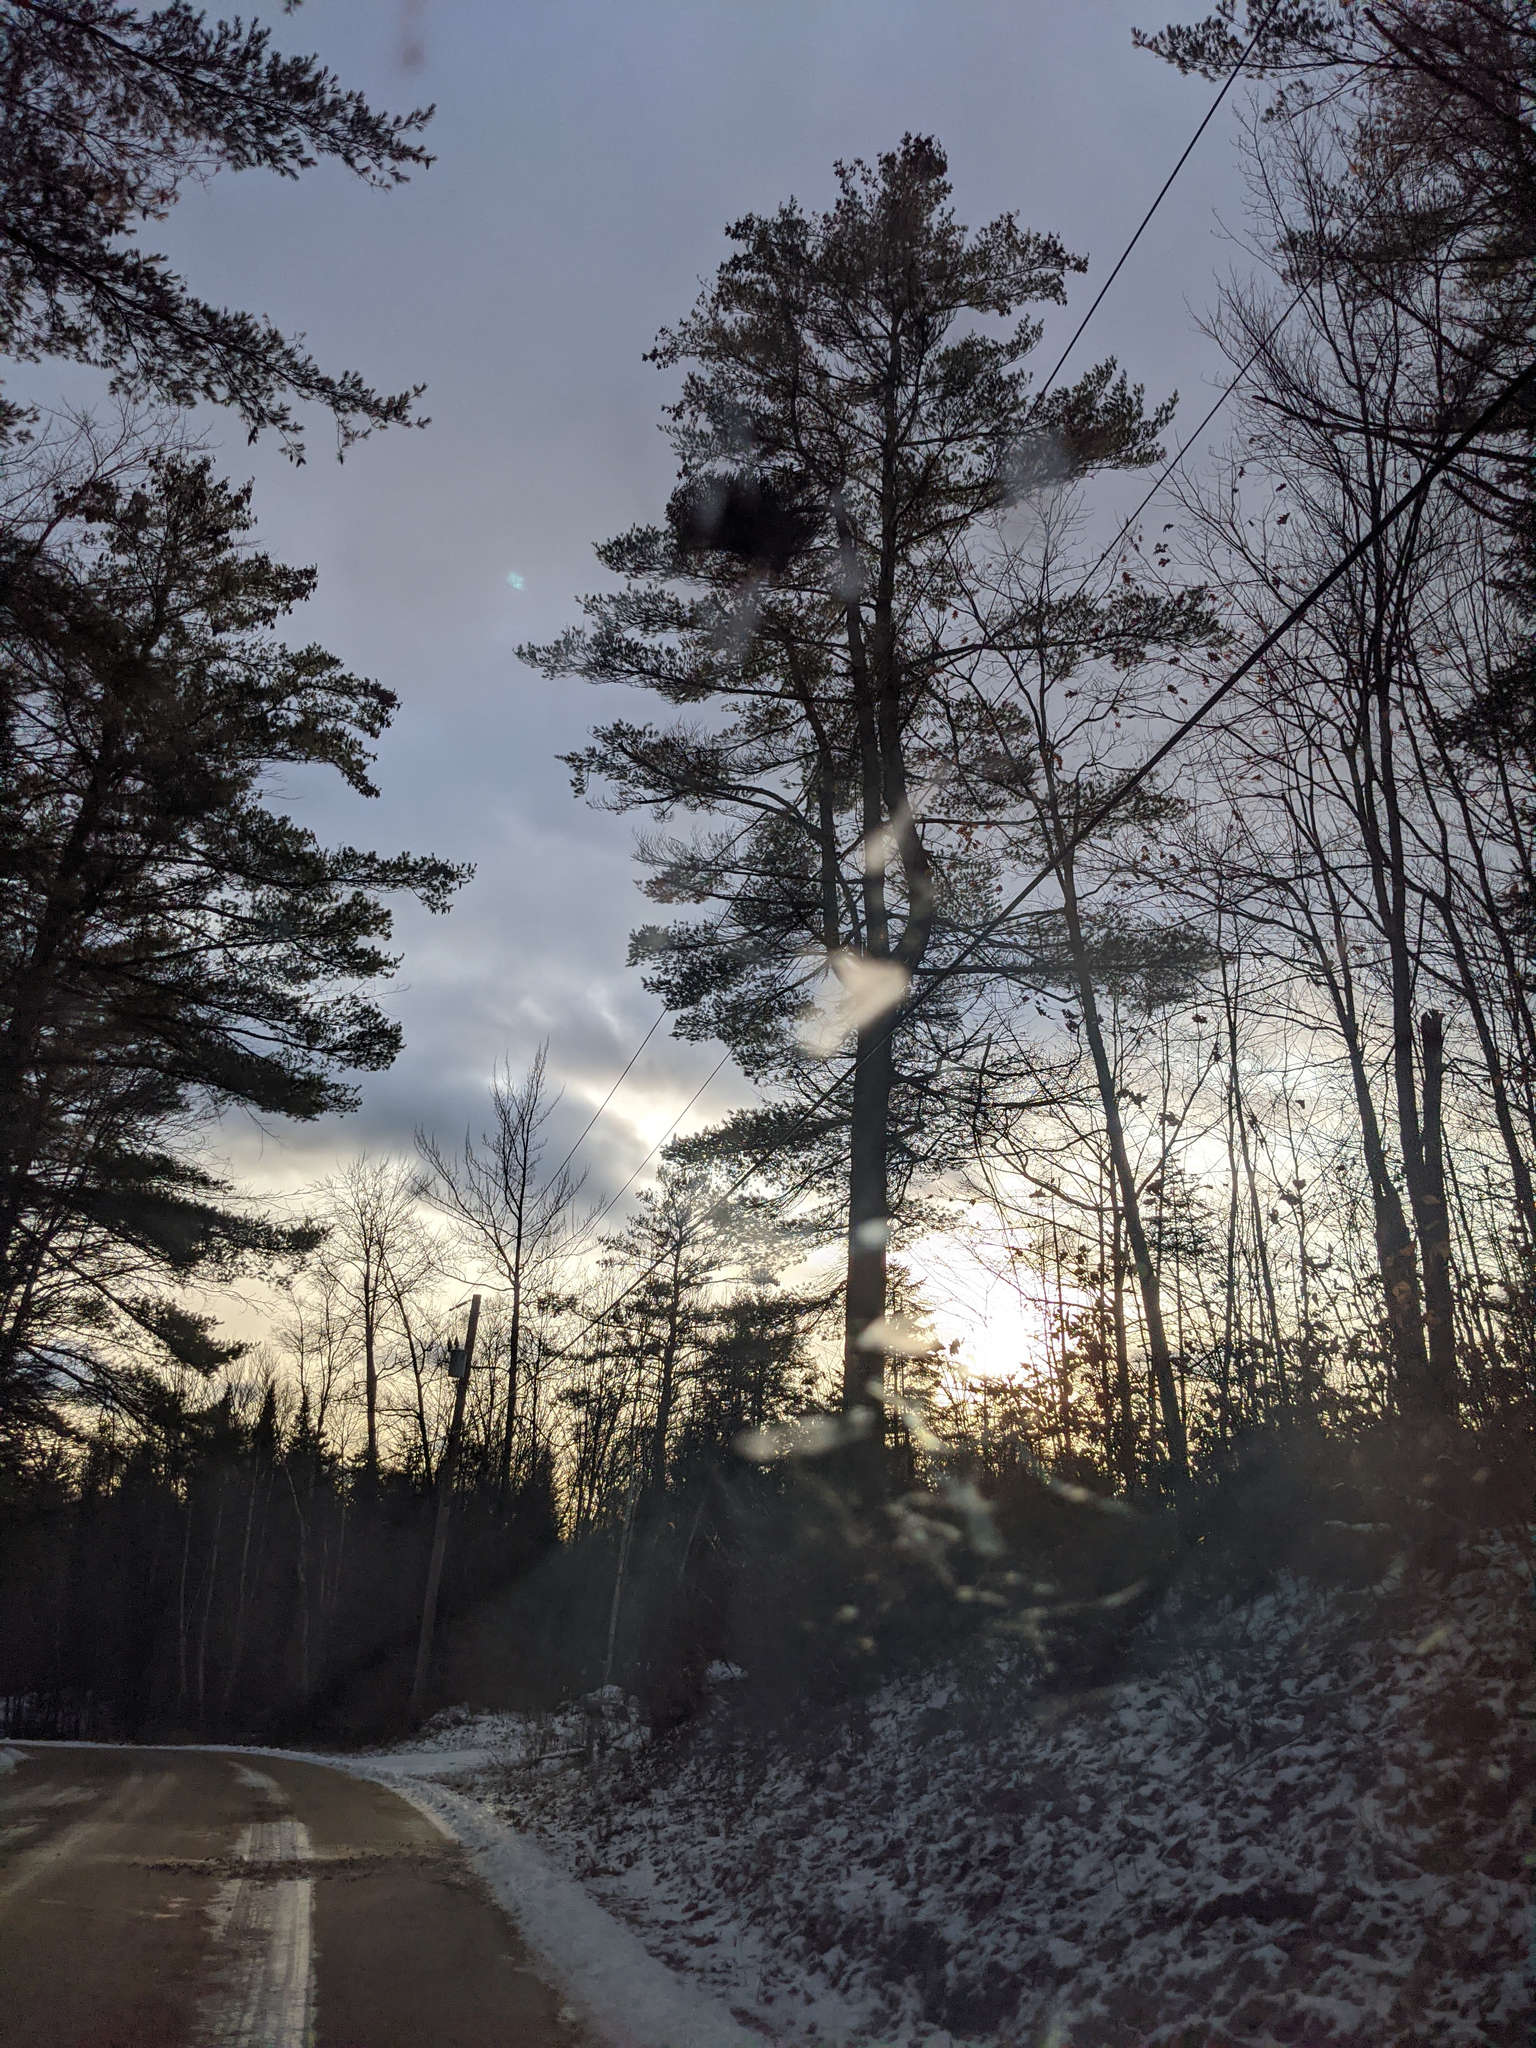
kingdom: Plantae
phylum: Tracheophyta
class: Pinopsida
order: Pinales
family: Pinaceae
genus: Pinus
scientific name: Pinus strobus
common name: Weymouth pine
